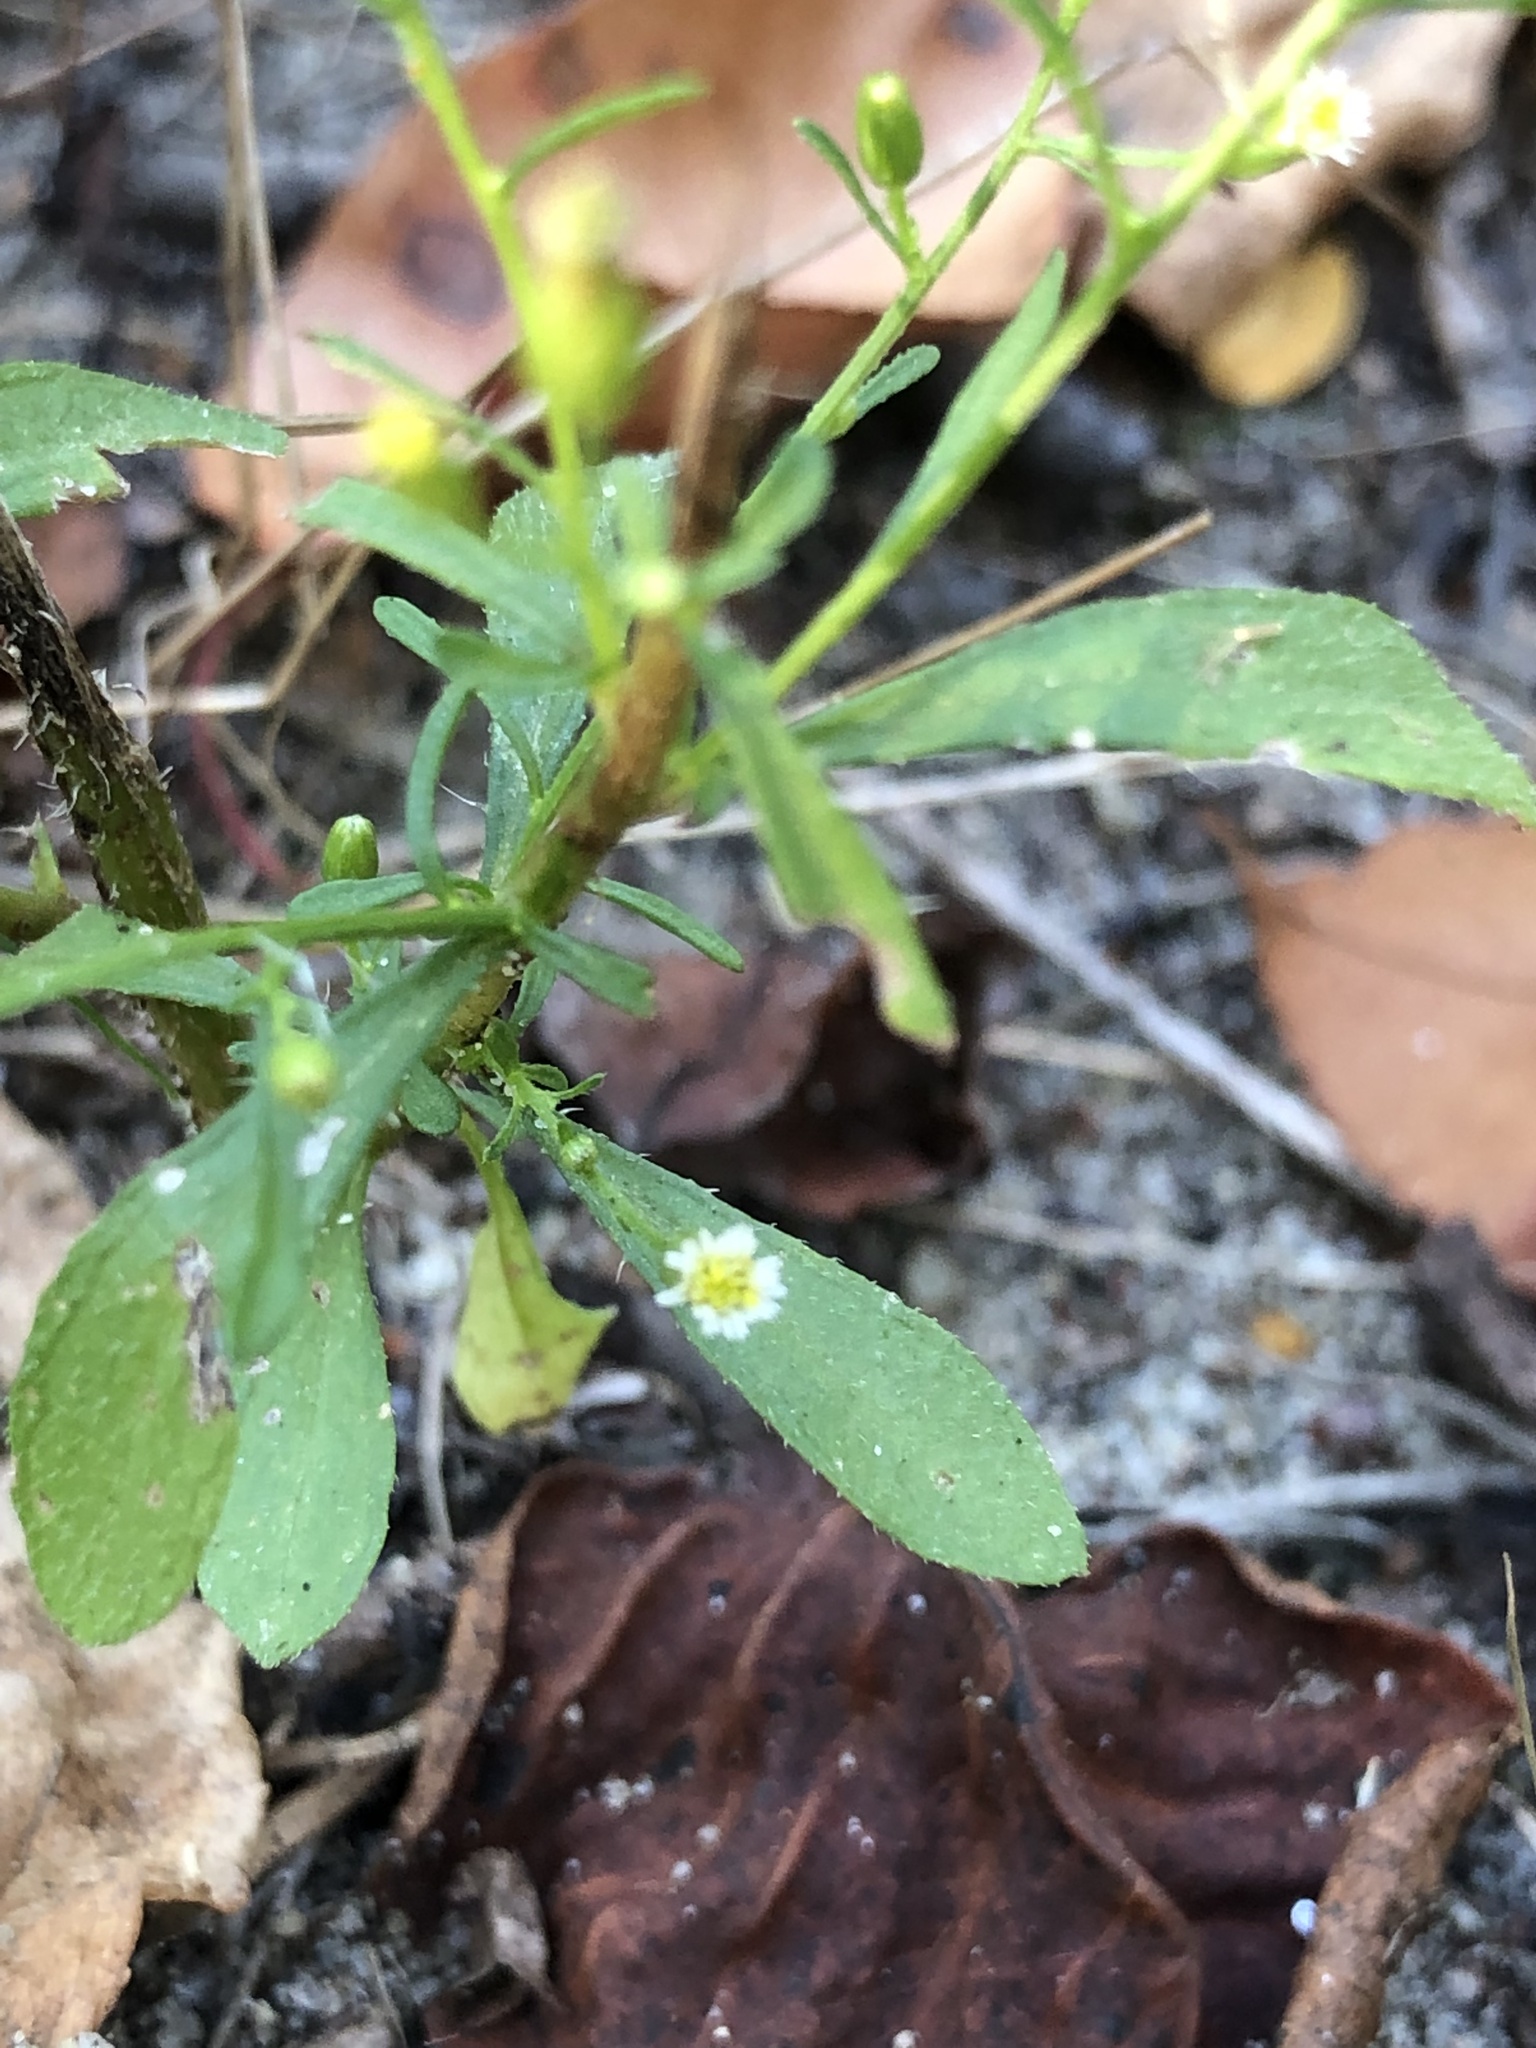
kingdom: Plantae
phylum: Tracheophyta
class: Magnoliopsida
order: Asterales
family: Asteraceae
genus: Erigeron
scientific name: Erigeron canadensis
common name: Canadian fleabane
